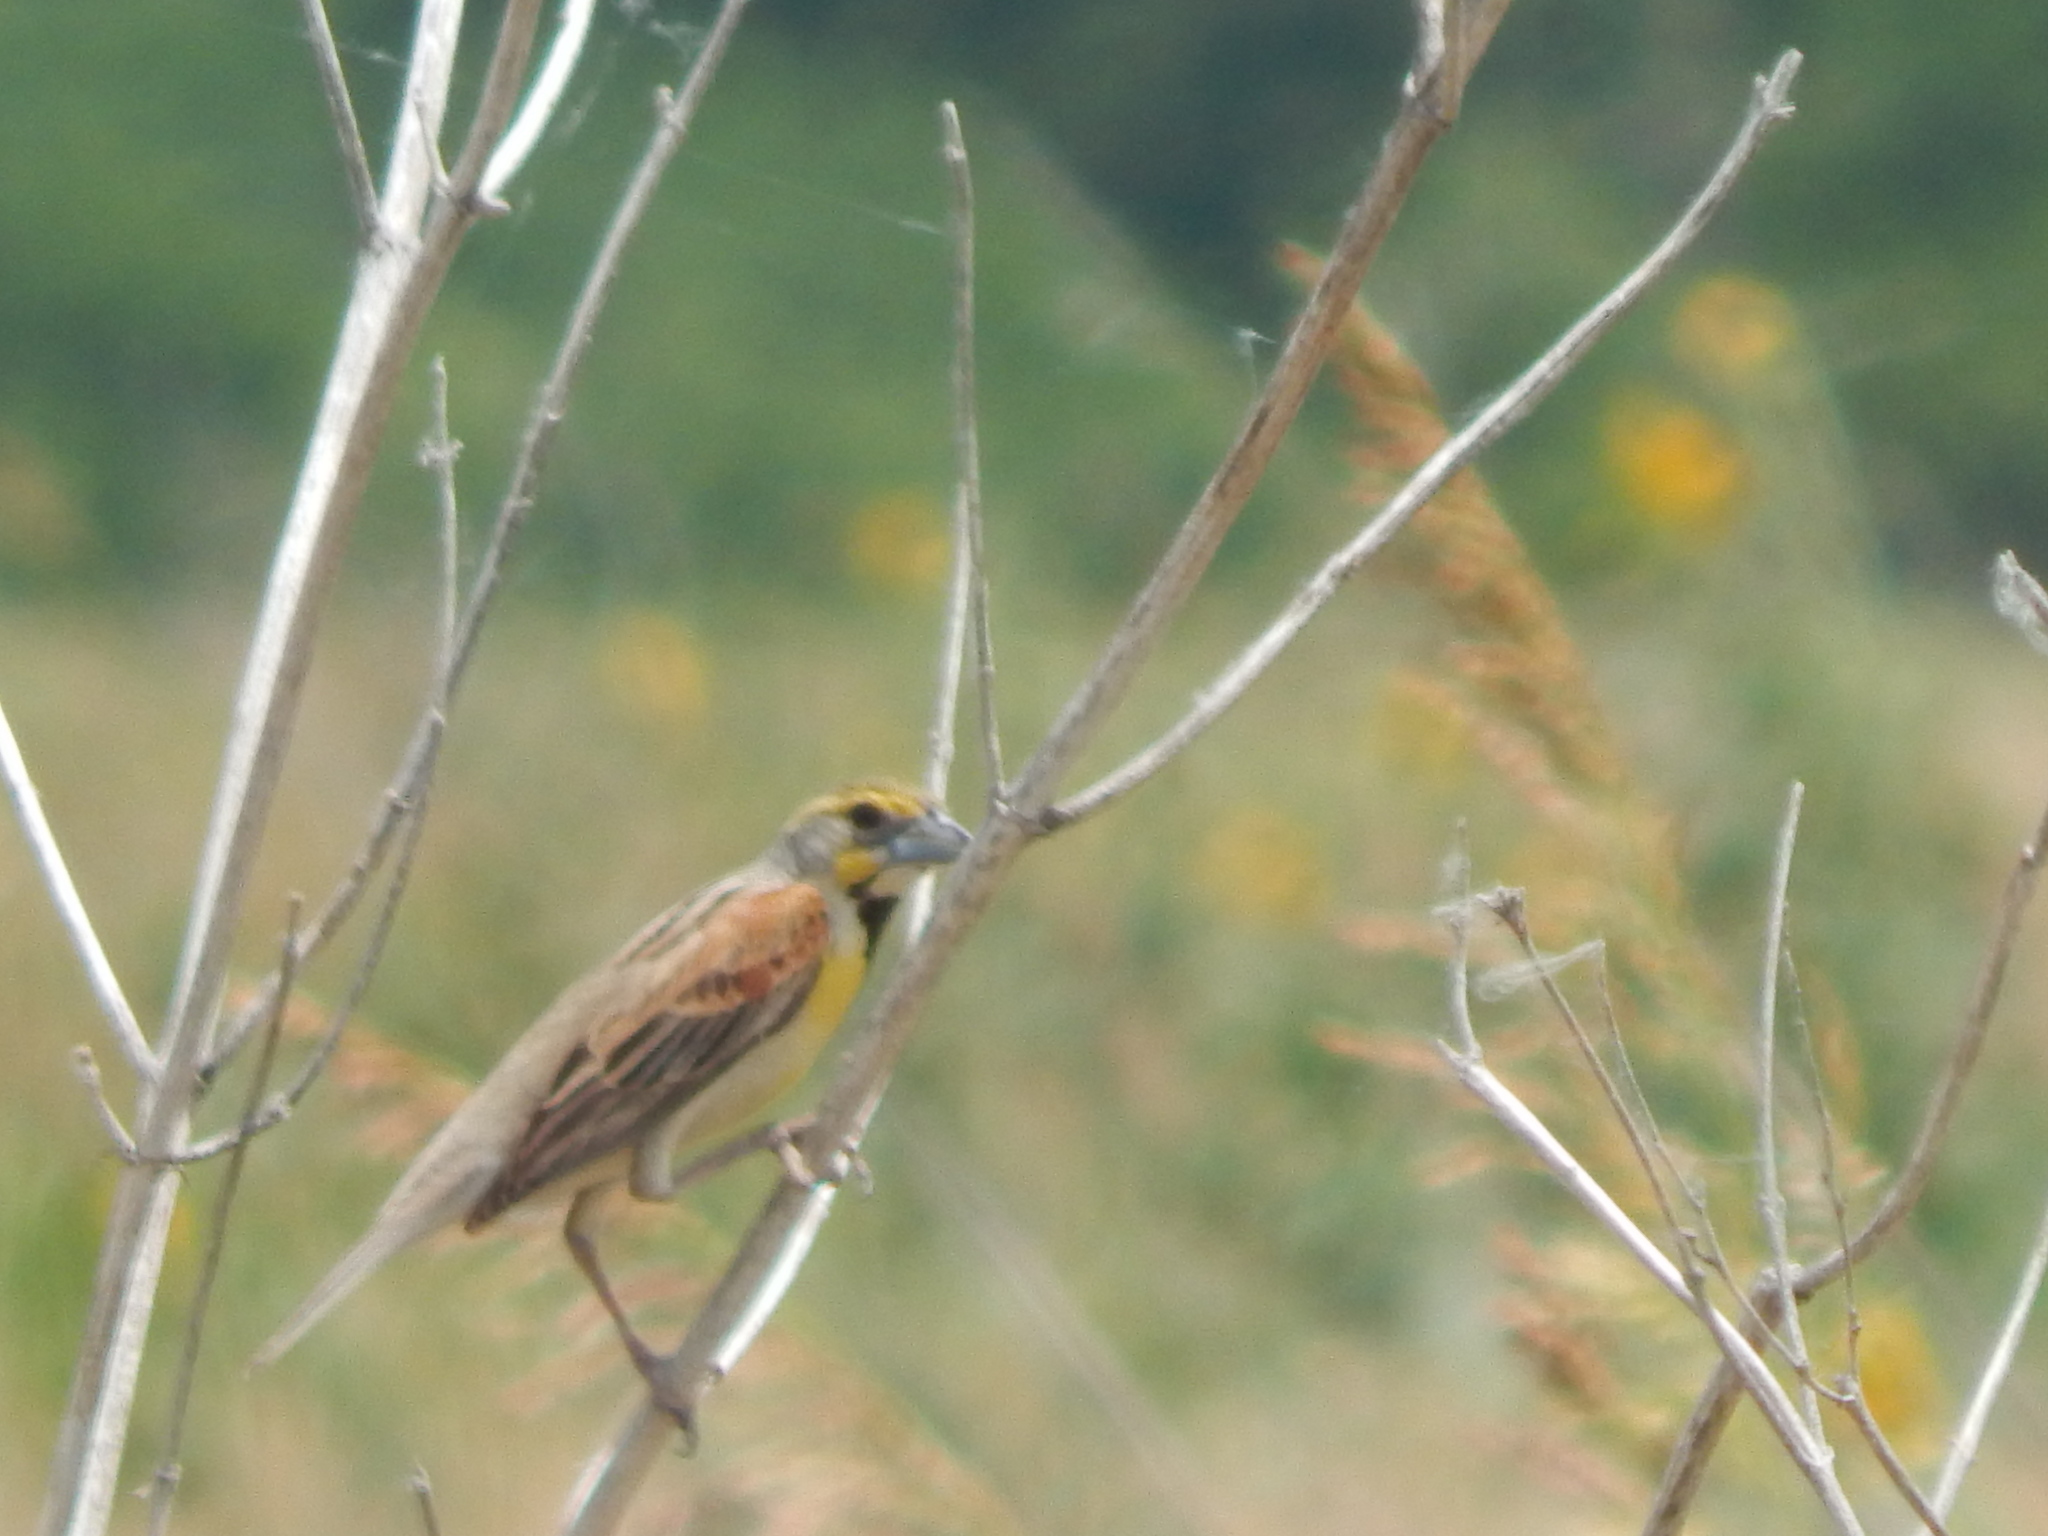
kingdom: Animalia
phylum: Chordata
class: Aves
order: Passeriformes
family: Cardinalidae
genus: Spiza
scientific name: Spiza americana
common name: Dickcissel
